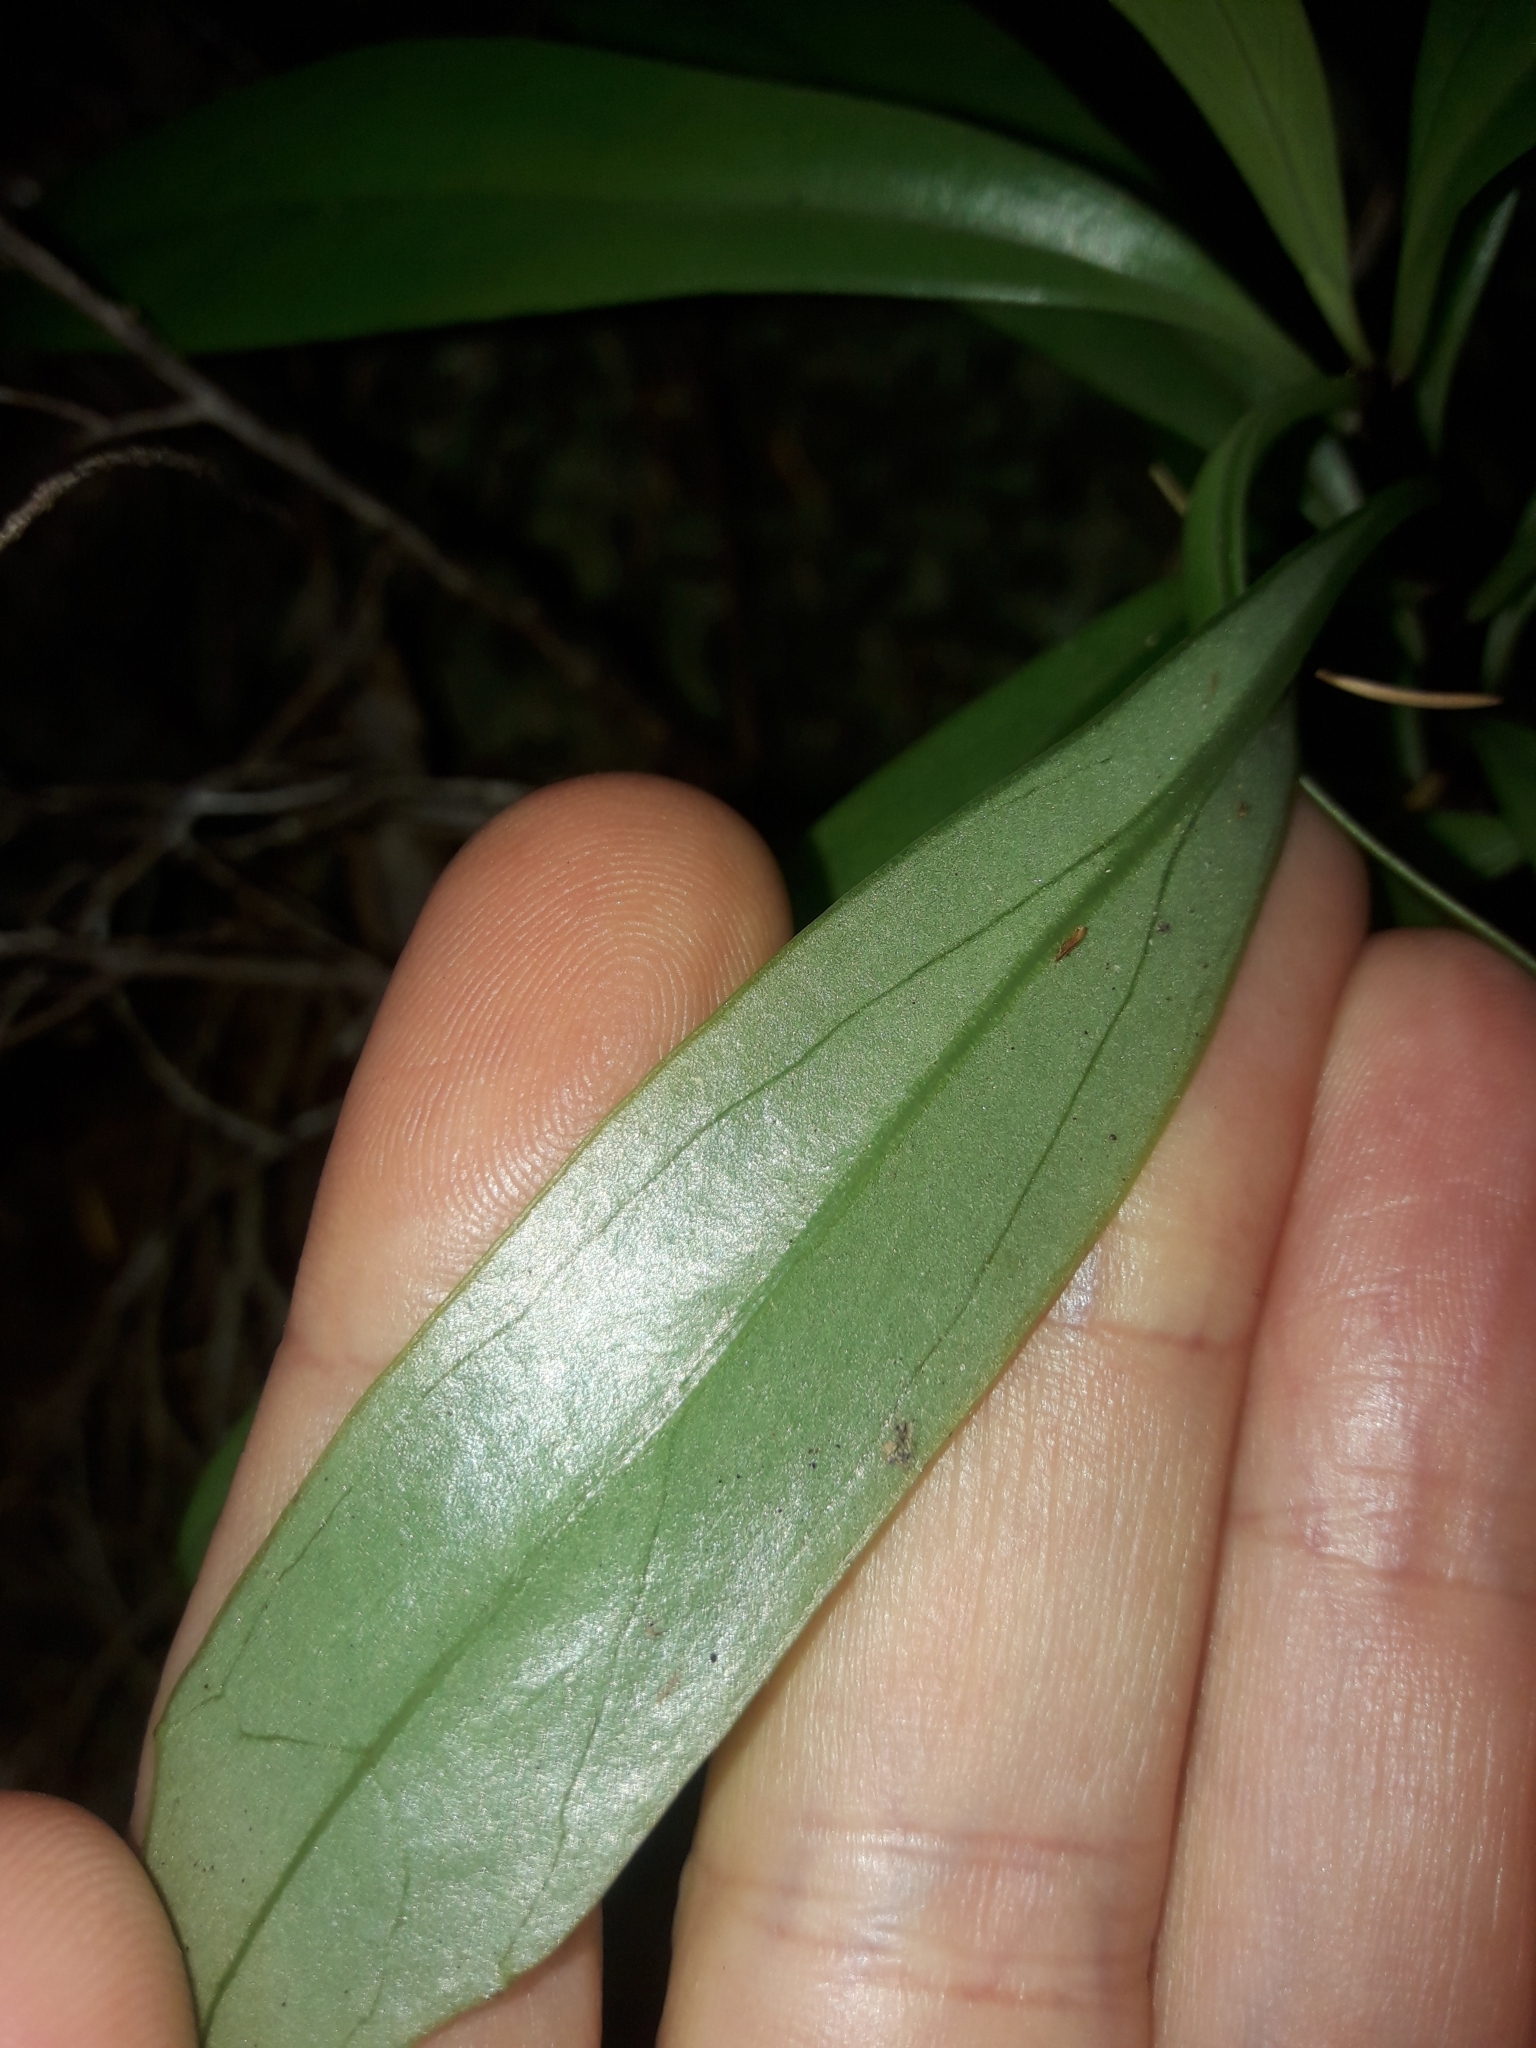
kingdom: Plantae
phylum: Tracheophyta
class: Magnoliopsida
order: Asterales
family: Asteraceae
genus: Brachyglottis
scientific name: Brachyglottis kirkii
